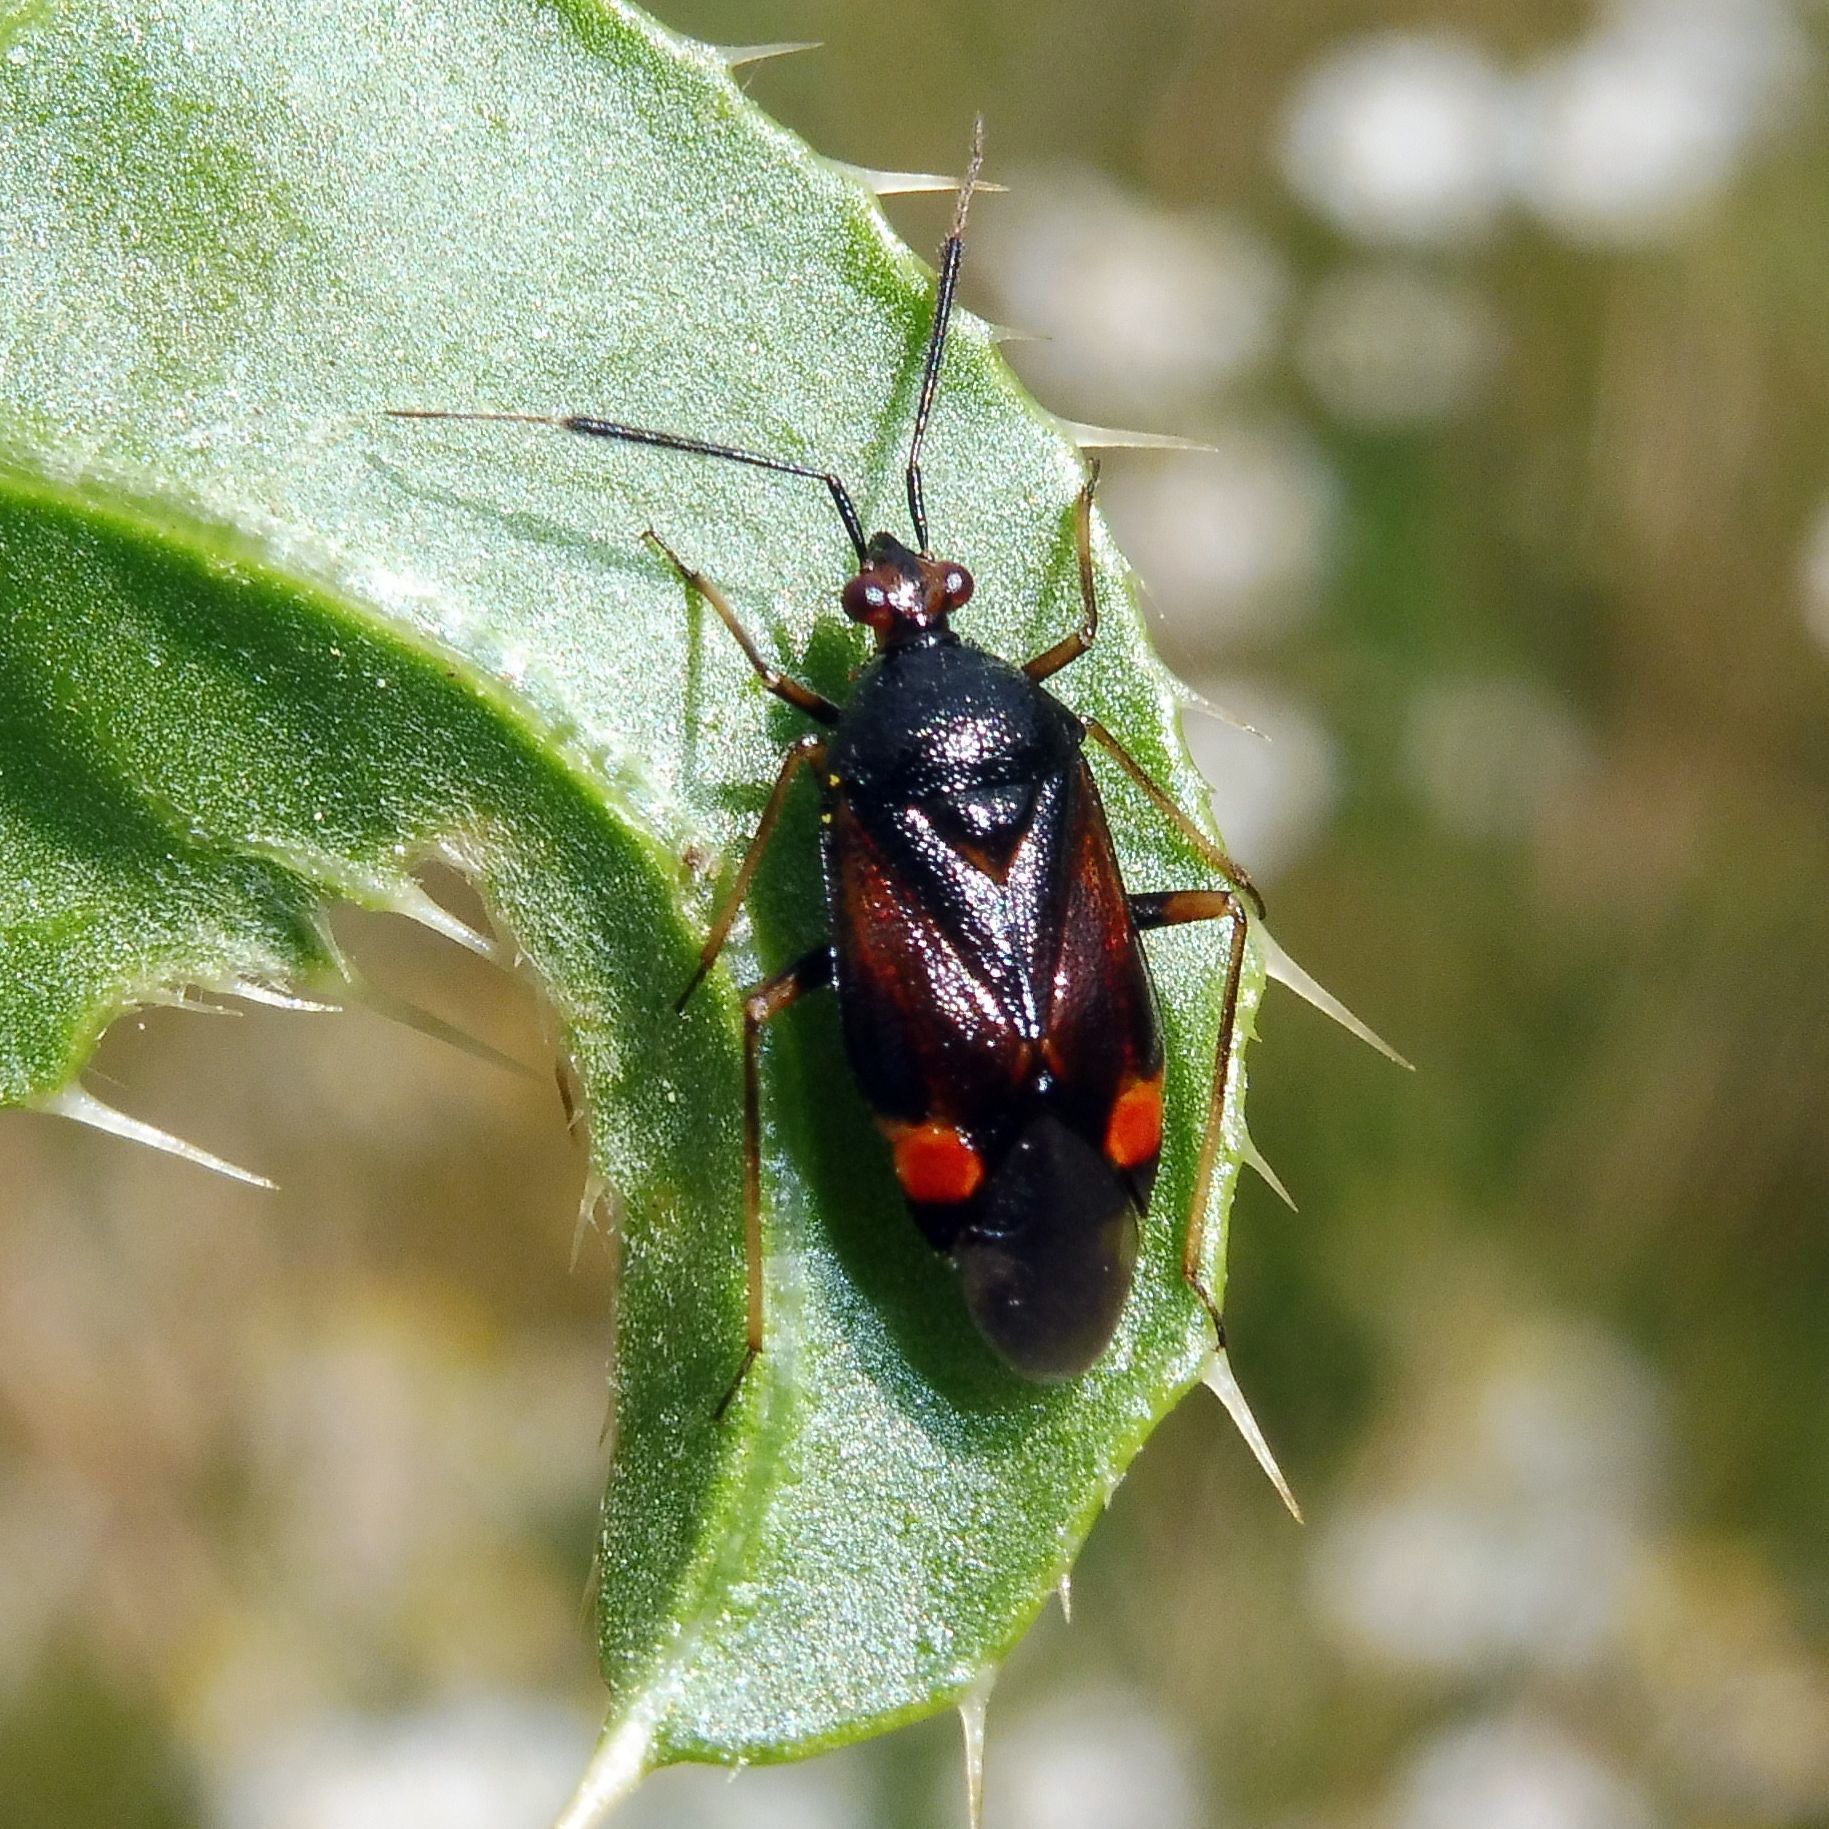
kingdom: Animalia
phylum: Arthropoda
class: Insecta
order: Hemiptera
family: Miridae
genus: Deraeocoris
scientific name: Deraeocoris ruber
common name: Plant bug
